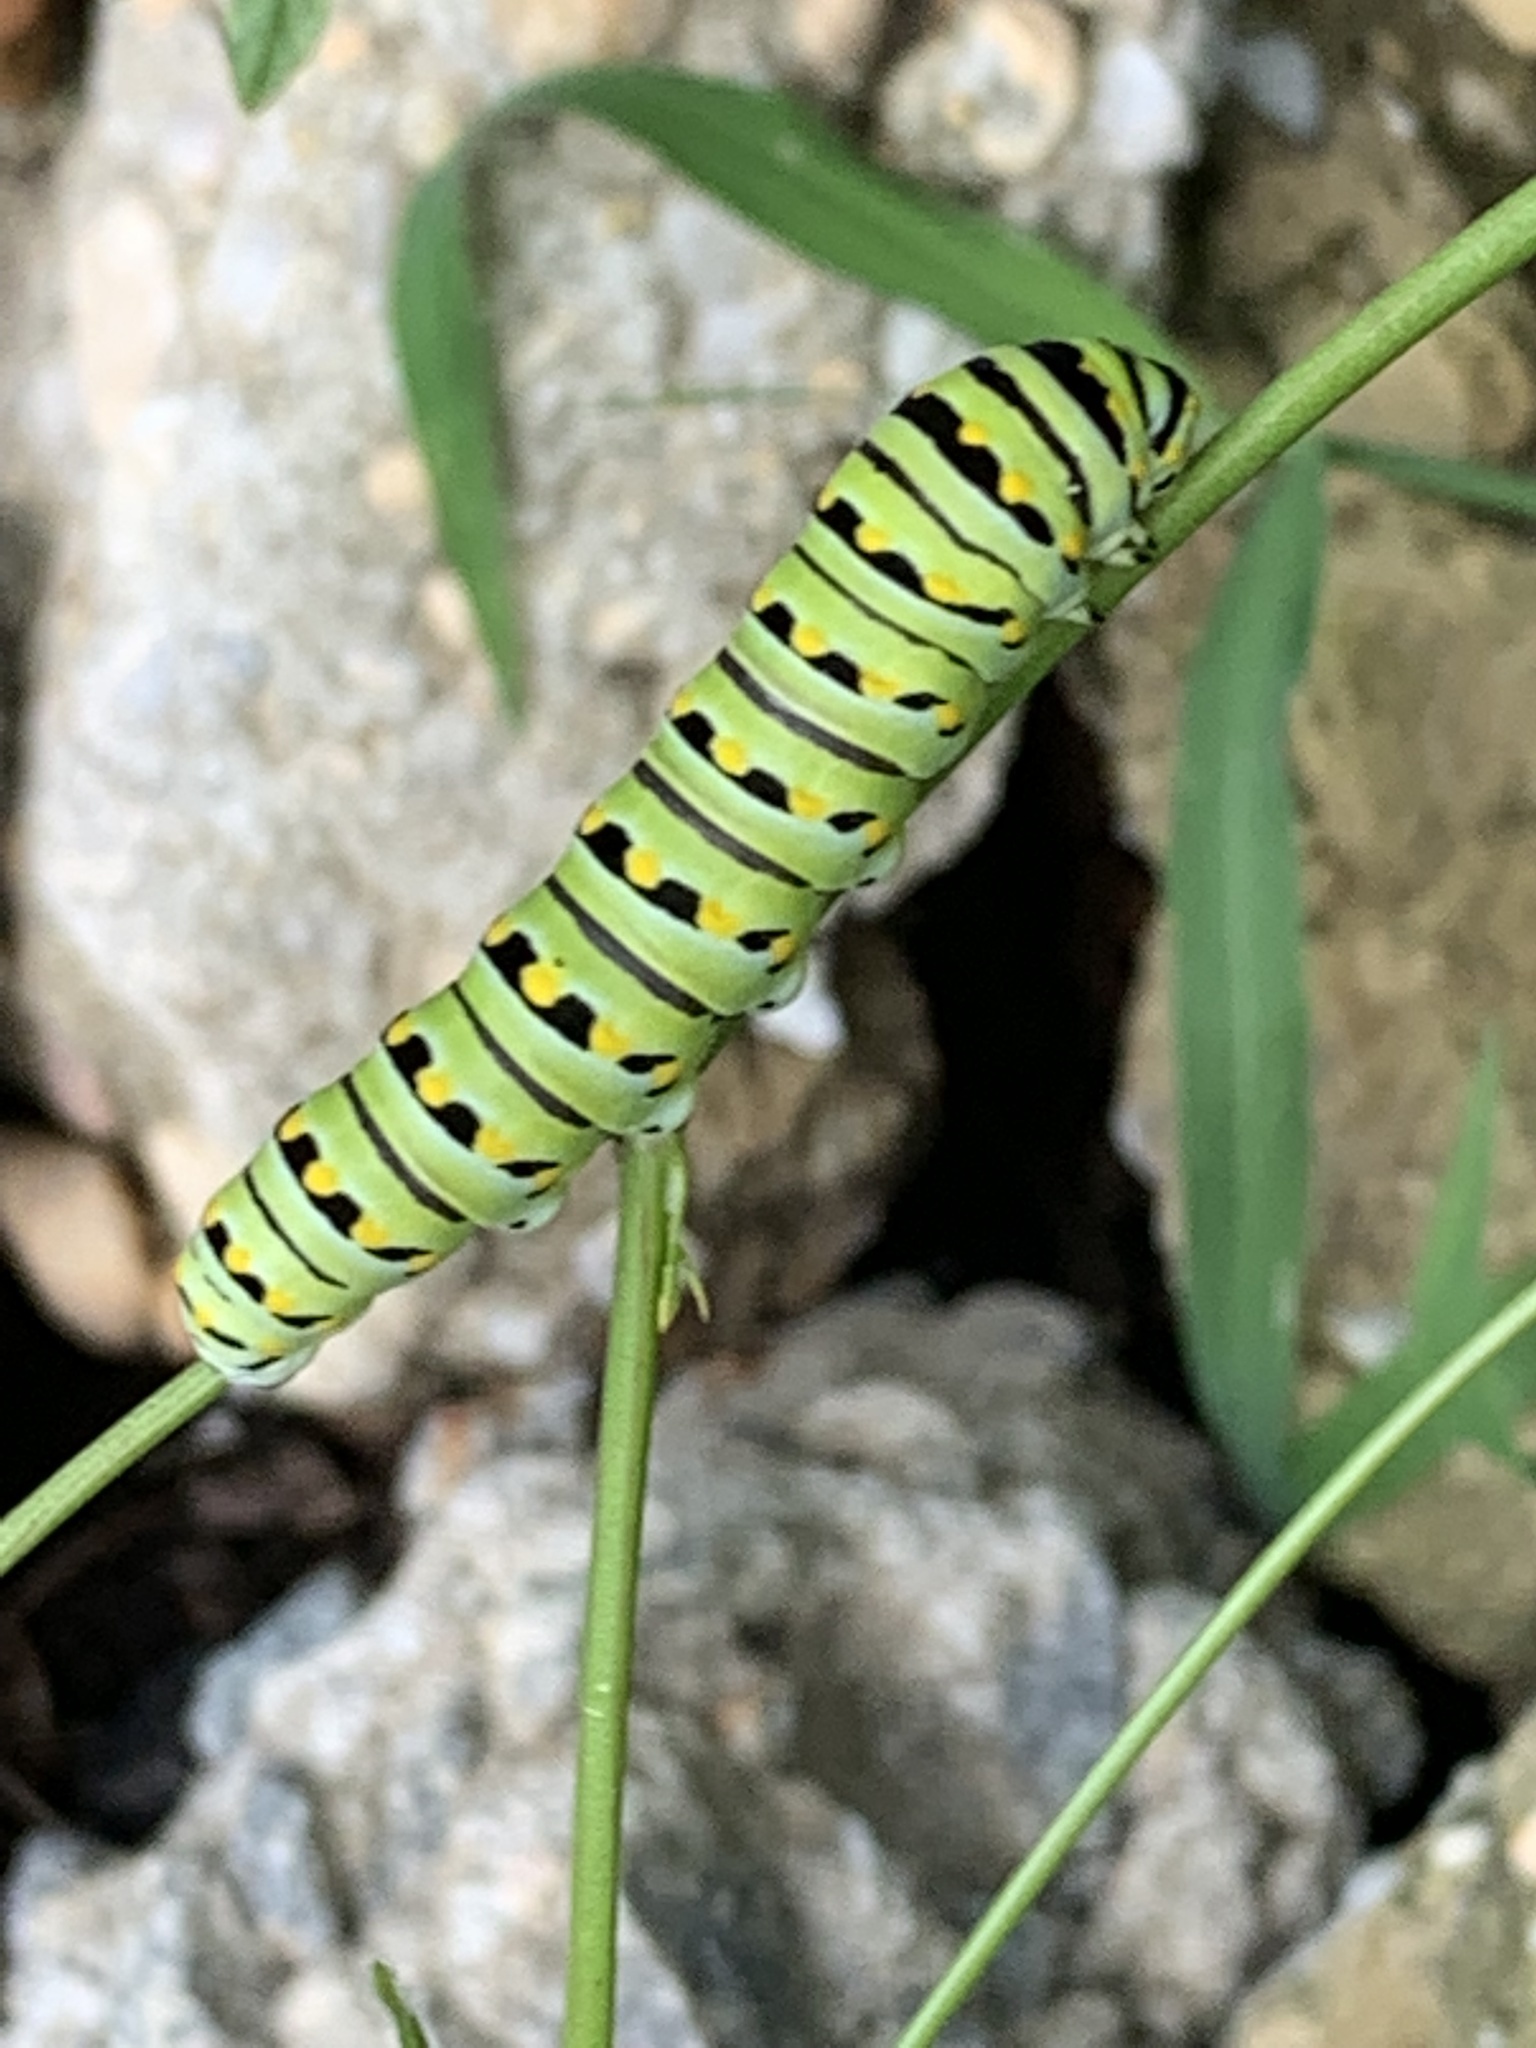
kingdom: Animalia
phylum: Arthropoda
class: Insecta
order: Lepidoptera
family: Papilionidae
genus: Papilio
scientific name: Papilio polyxenes
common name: Black swallowtail
